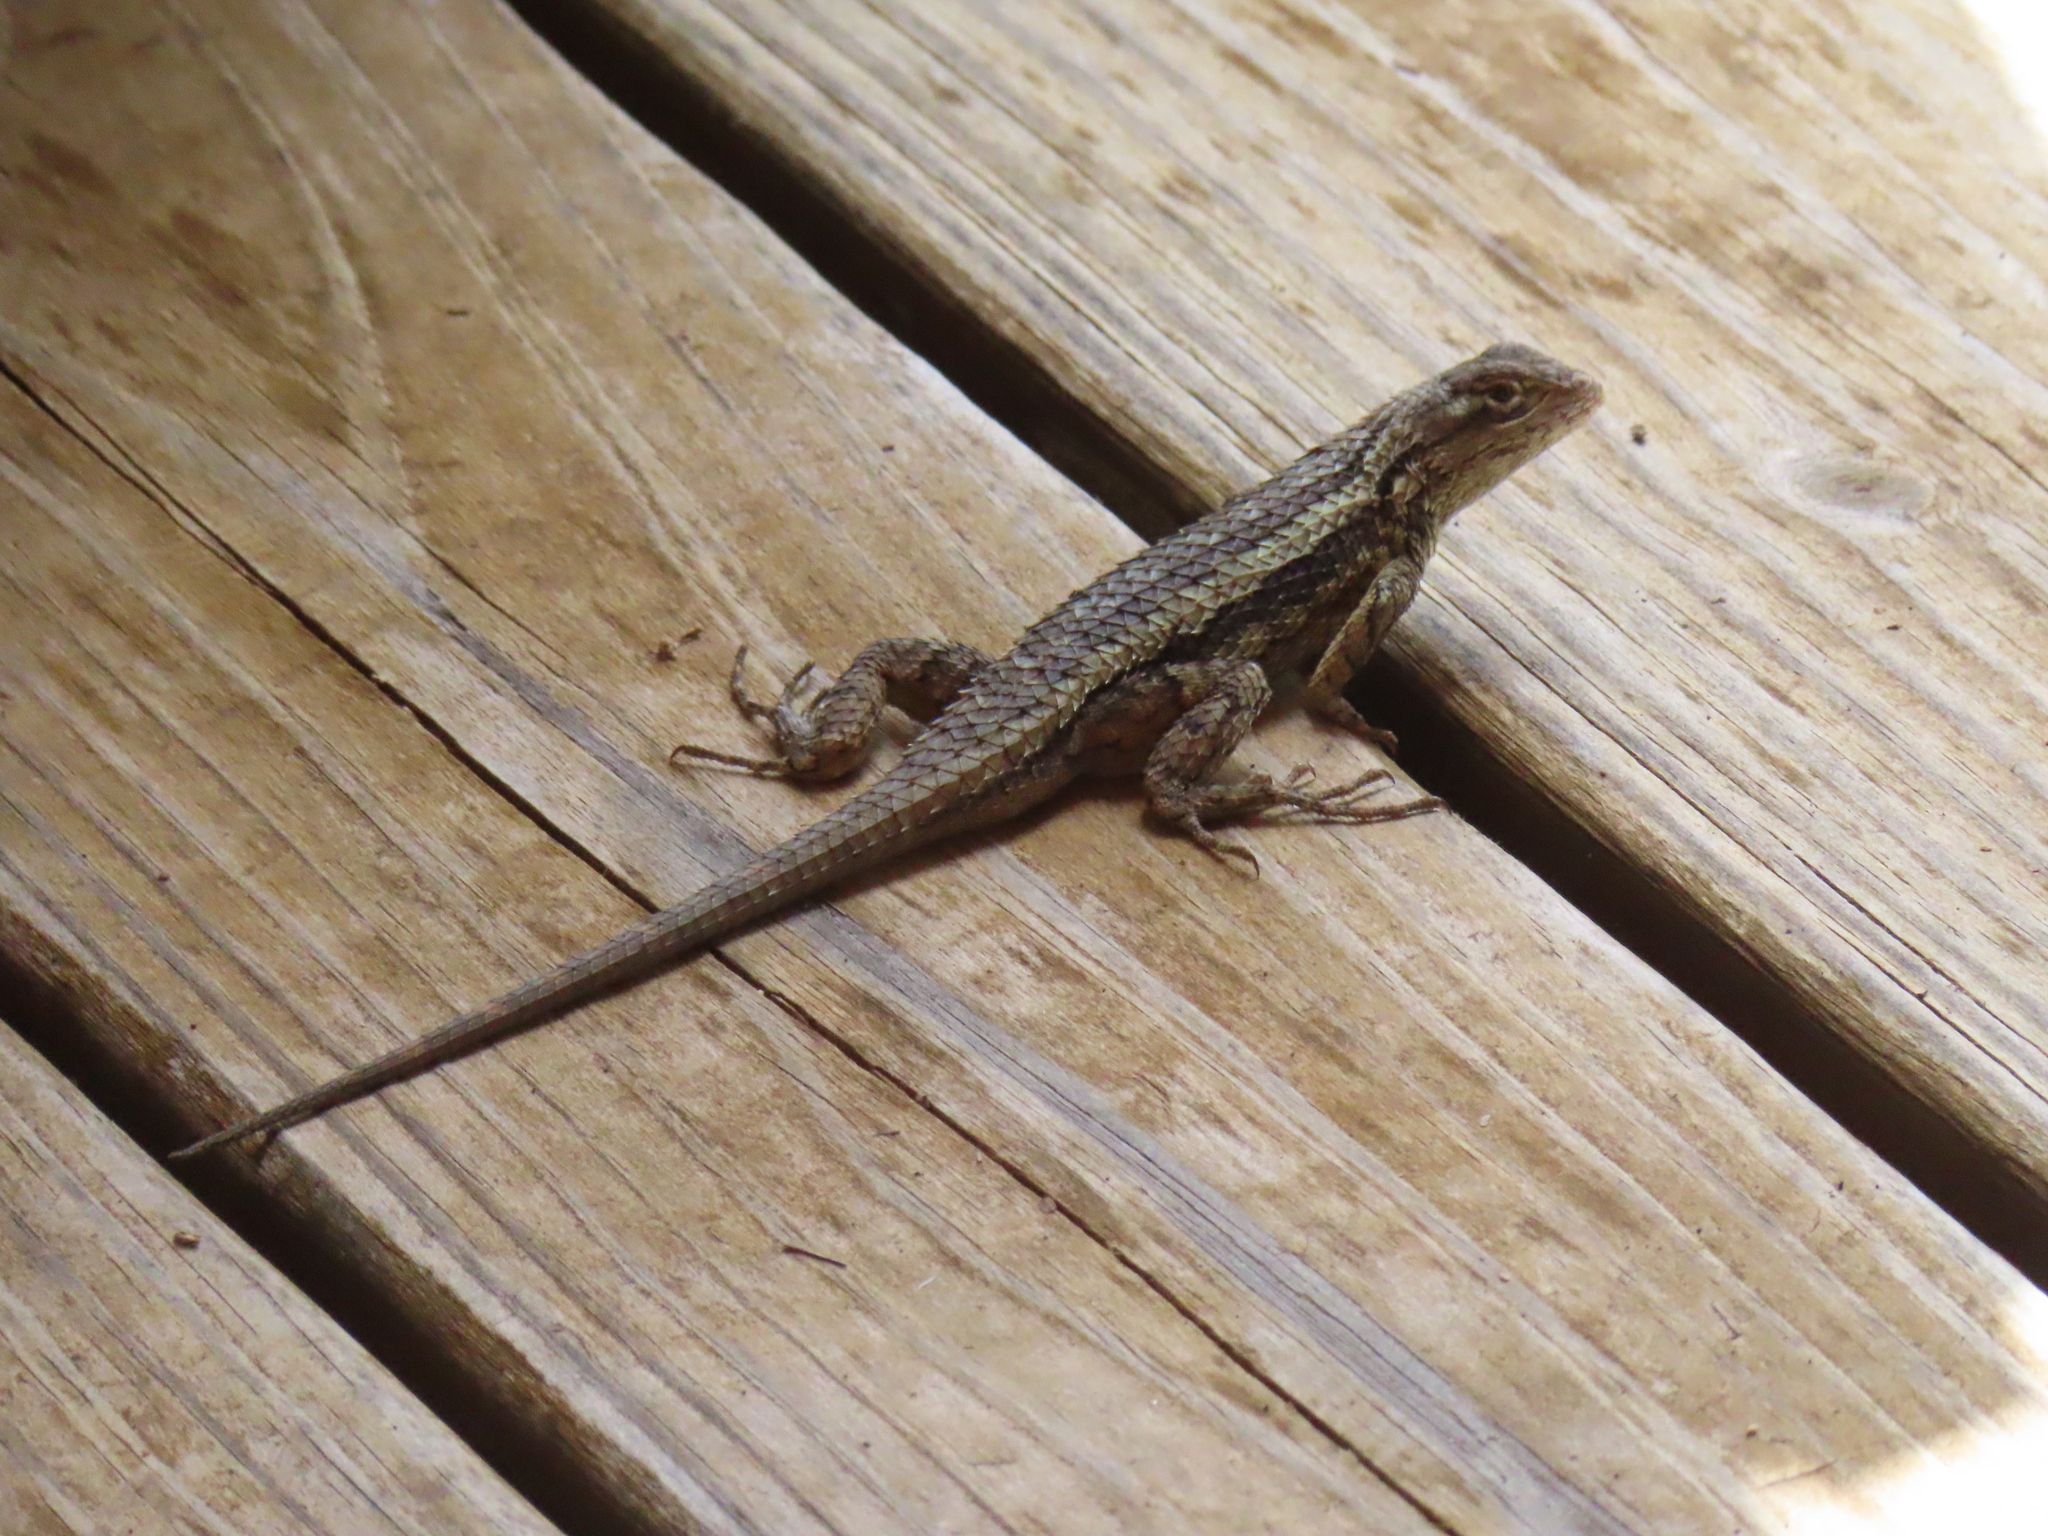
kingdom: Animalia
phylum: Chordata
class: Squamata
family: Phrynosomatidae
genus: Sceloporus
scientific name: Sceloporus olivaceus
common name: Texas spiny lizard
